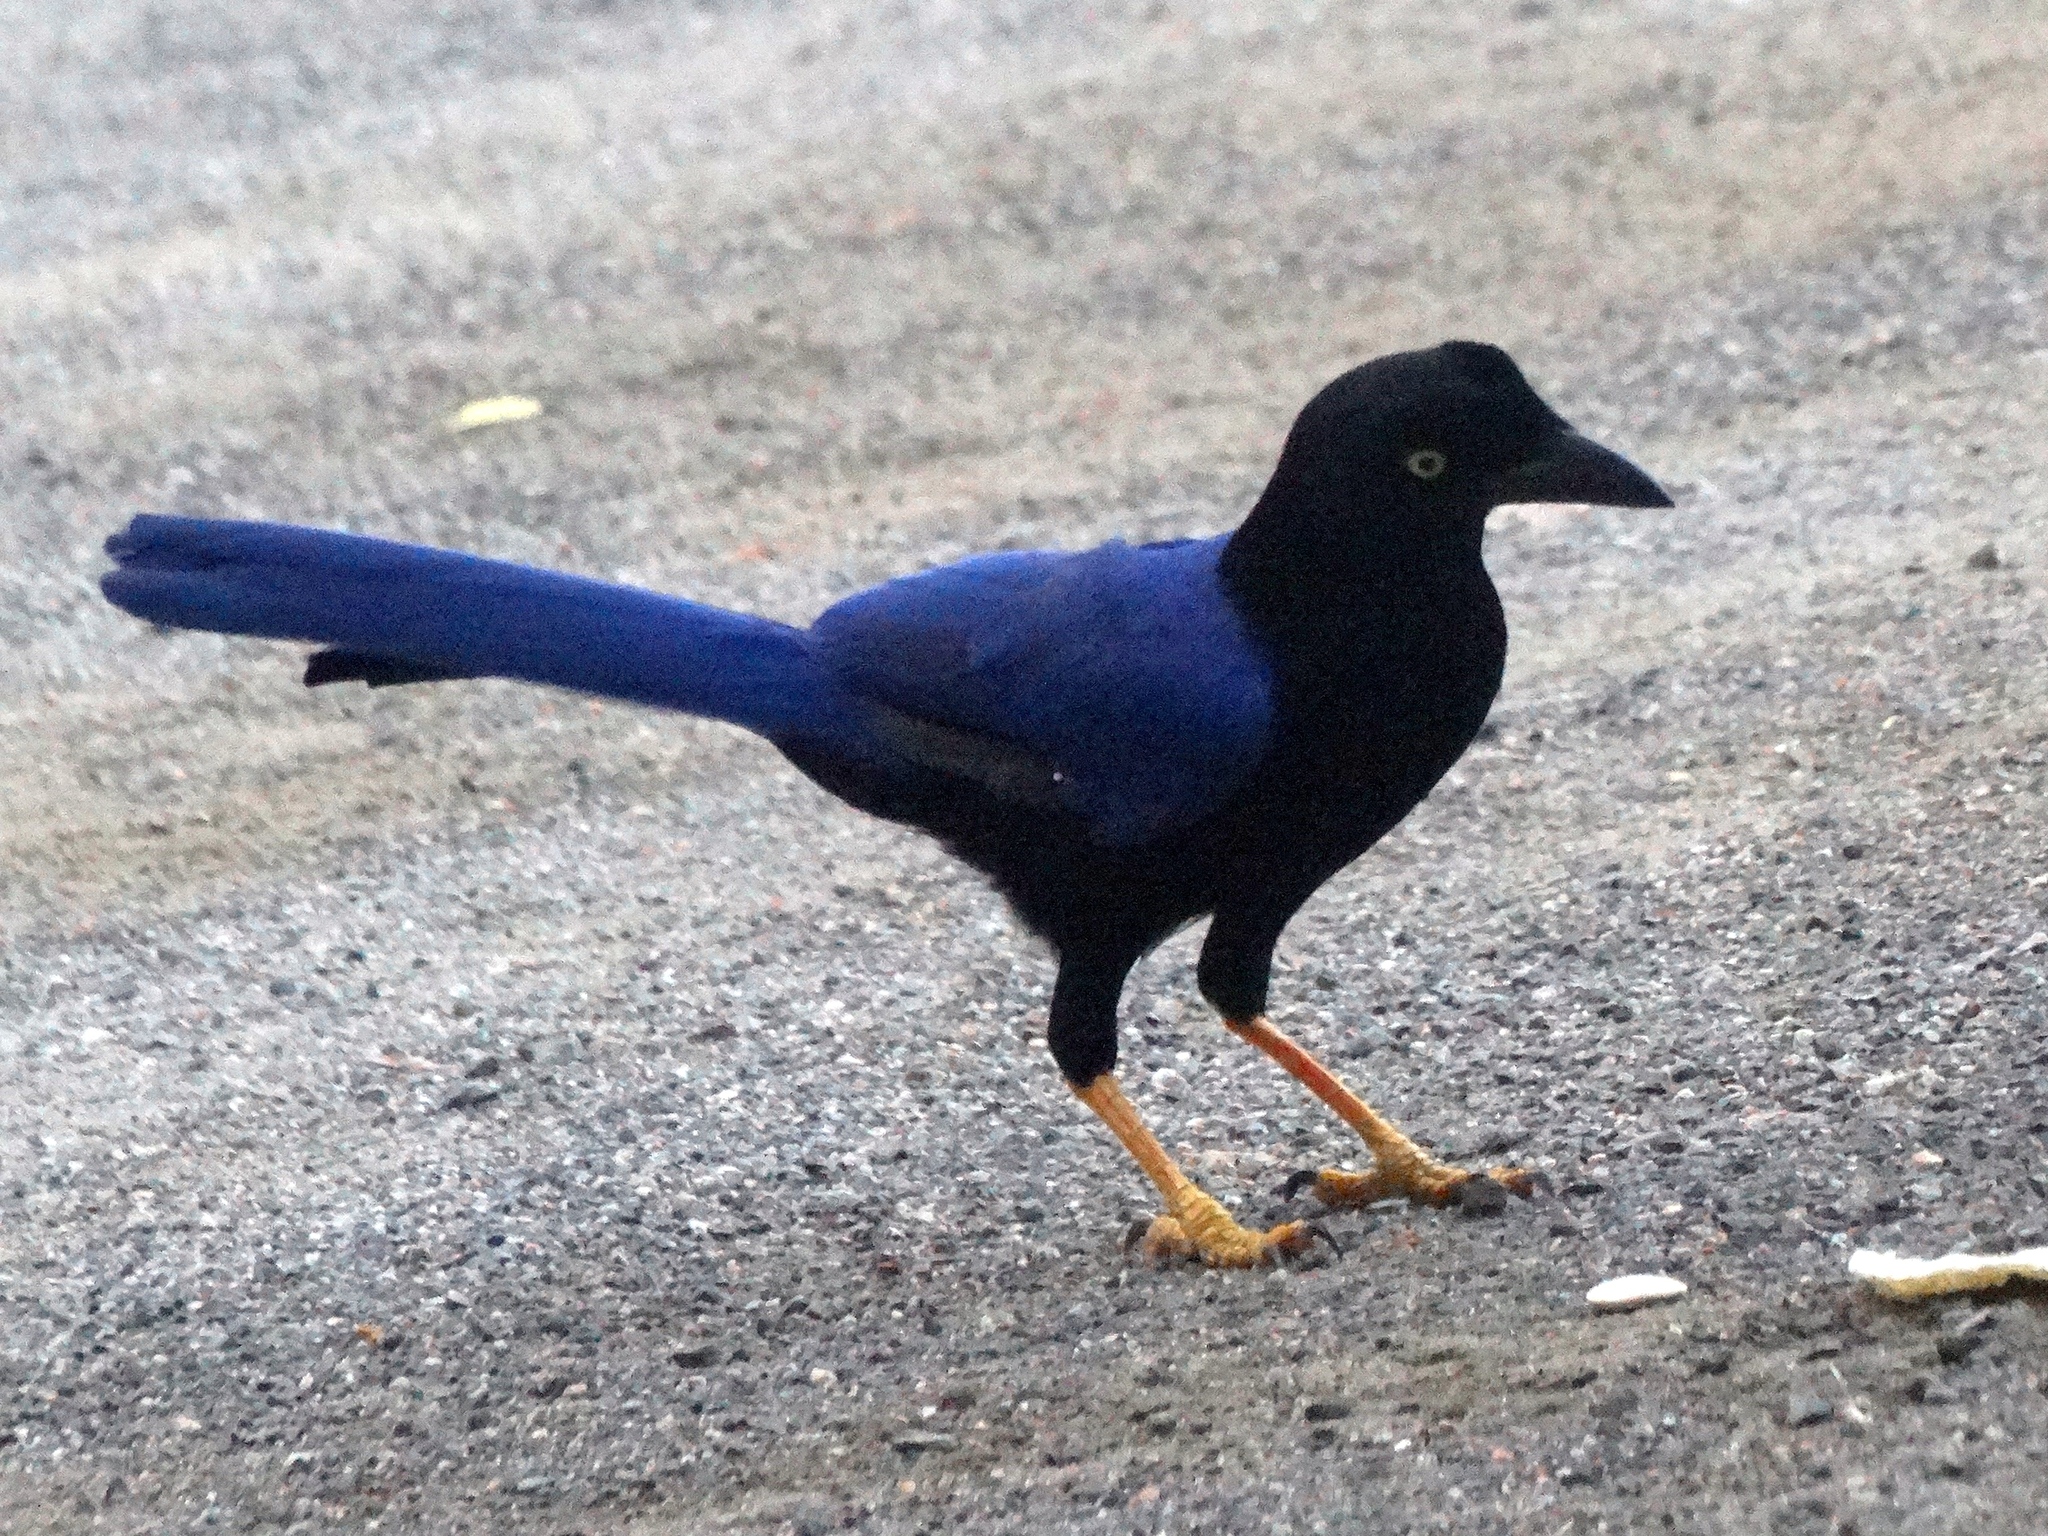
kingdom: Animalia
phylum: Chordata
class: Aves
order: Passeriformes
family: Corvidae
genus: Cyanocorax
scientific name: Cyanocorax beecheii
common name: Purplish-backed jay
